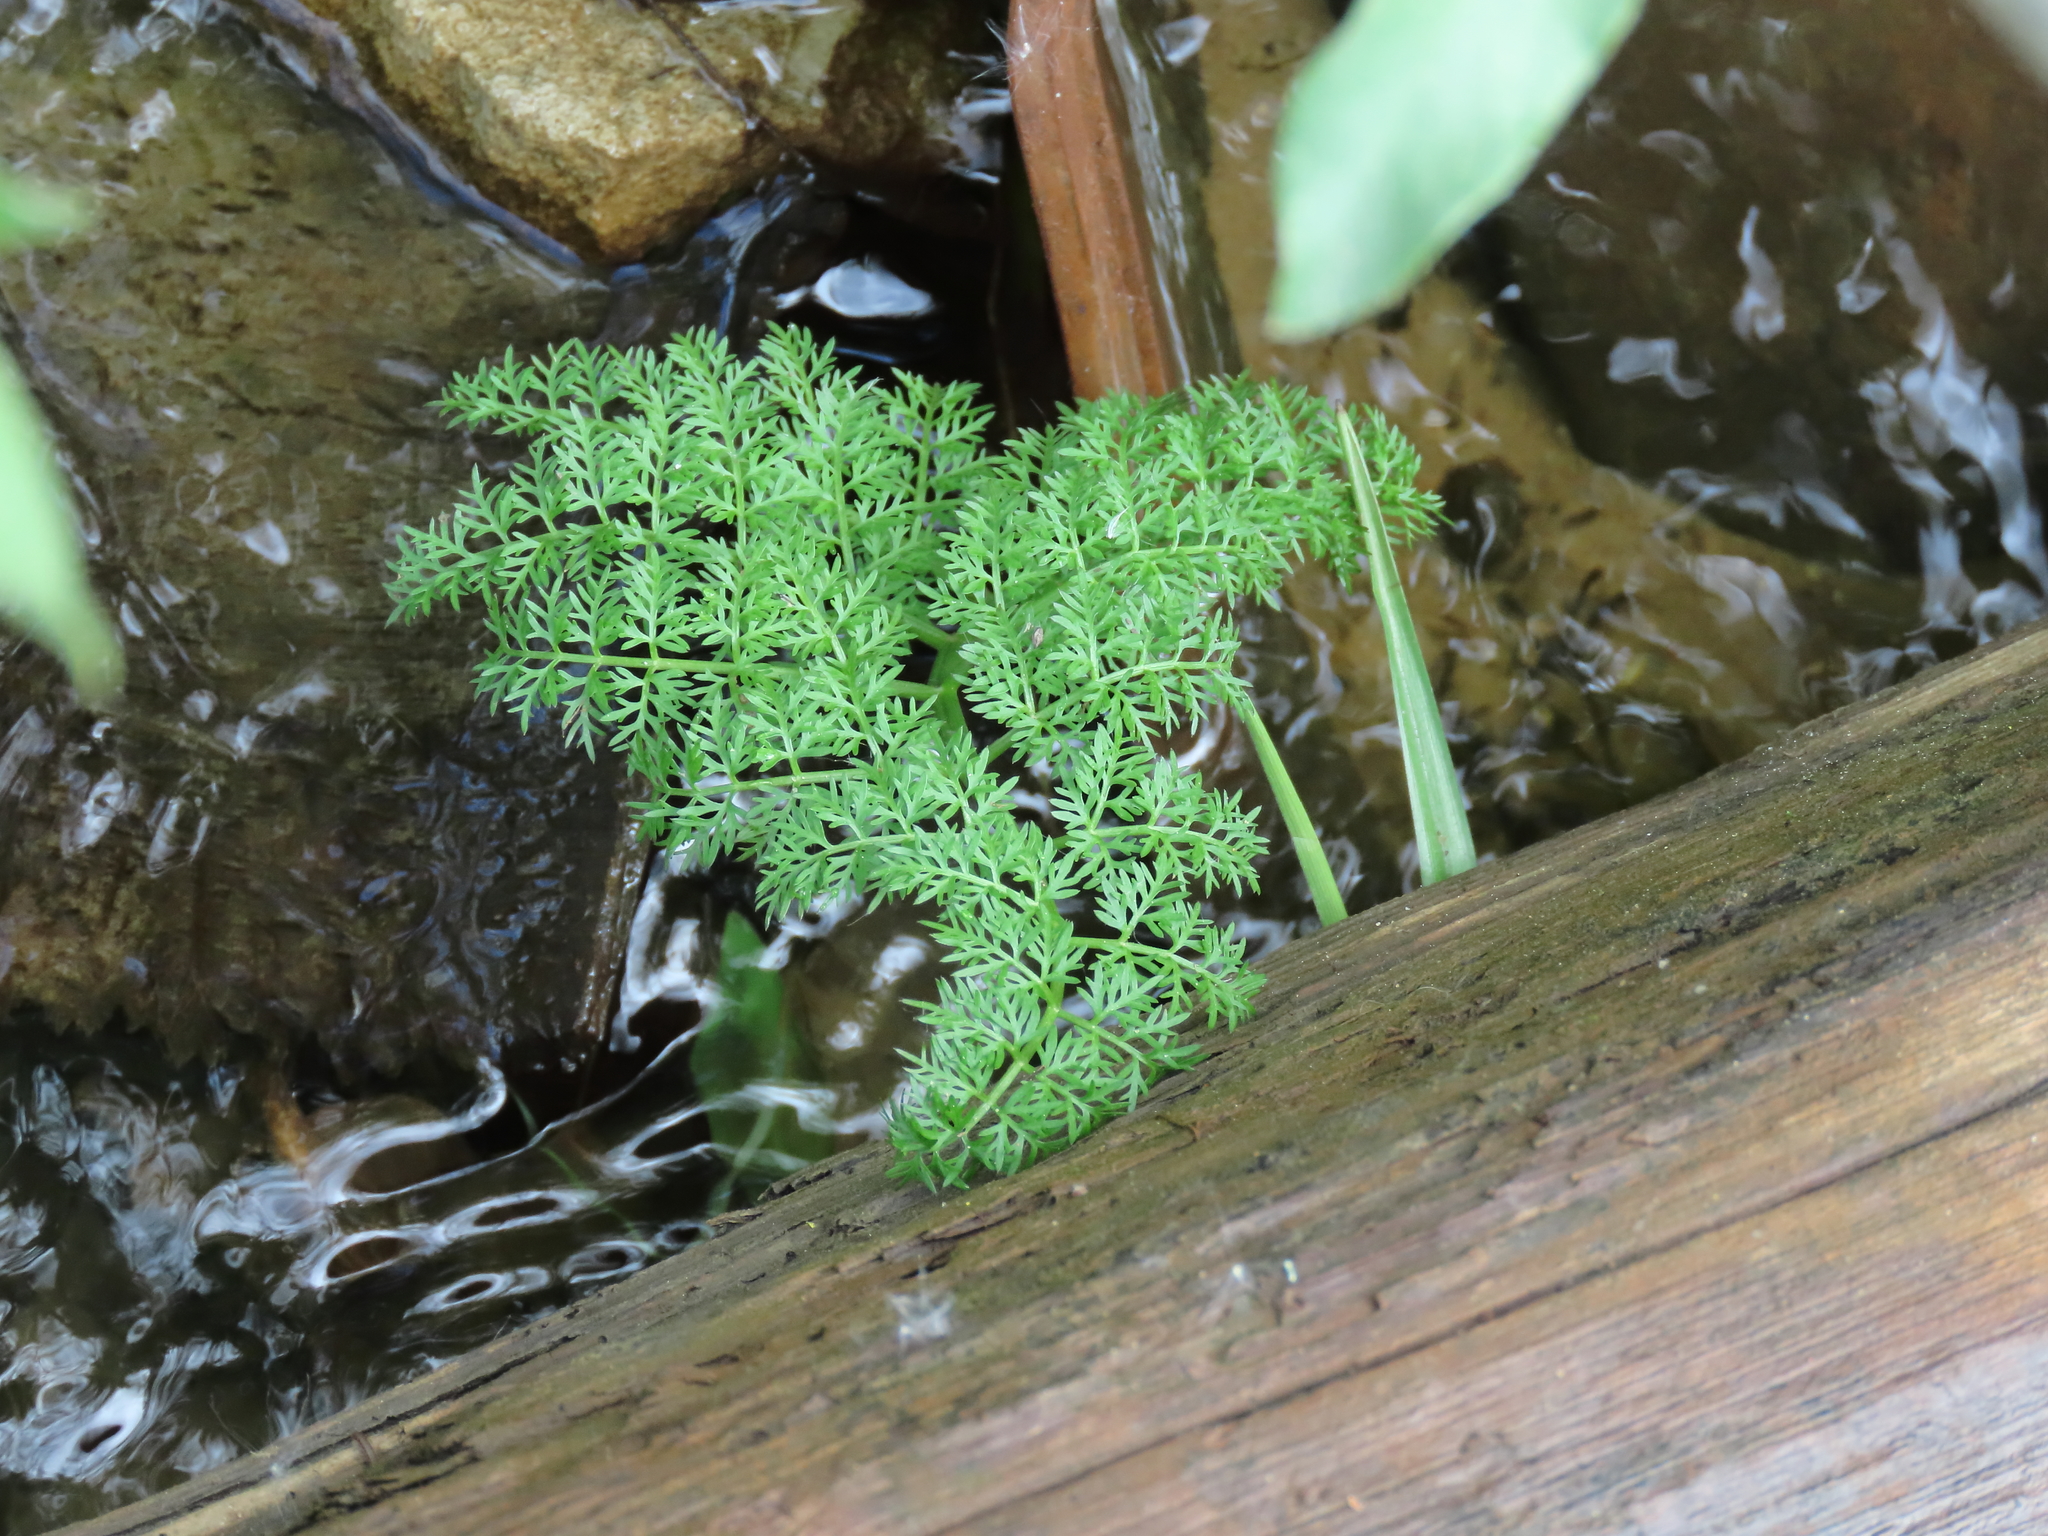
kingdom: Plantae
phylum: Tracheophyta
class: Magnoliopsida
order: Apiales
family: Apiaceae
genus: Oenanthe
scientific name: Oenanthe aquatica
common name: Fine-leaved water-dropwort
